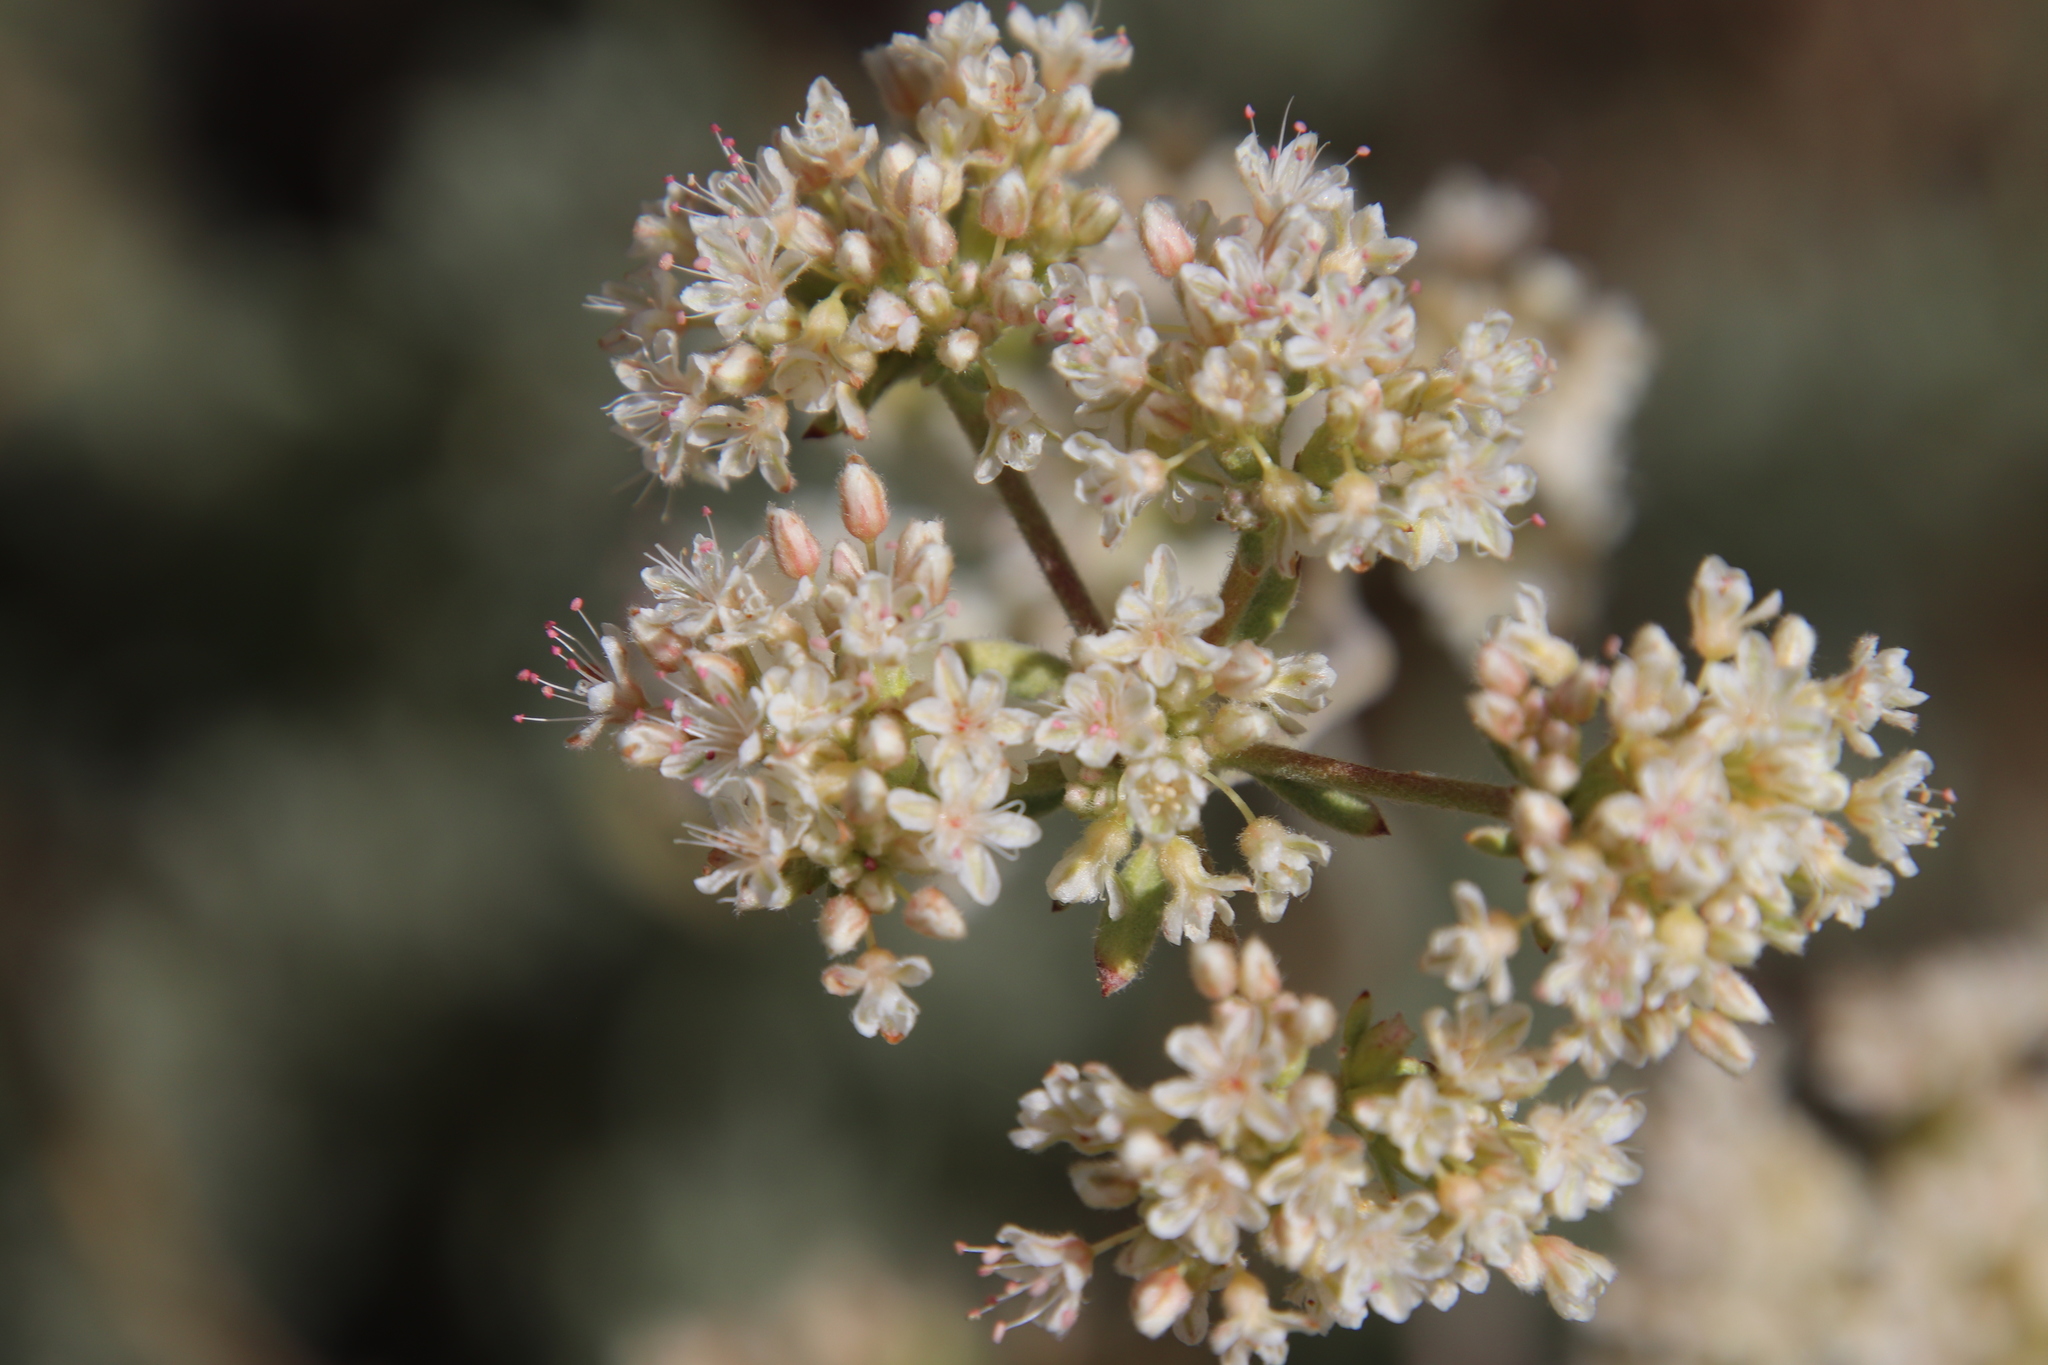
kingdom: Plantae
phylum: Tracheophyta
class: Magnoliopsida
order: Caryophyllales
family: Polygonaceae
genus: Eriogonum
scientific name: Eriogonum fasciculatum
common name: California wild buckwheat
